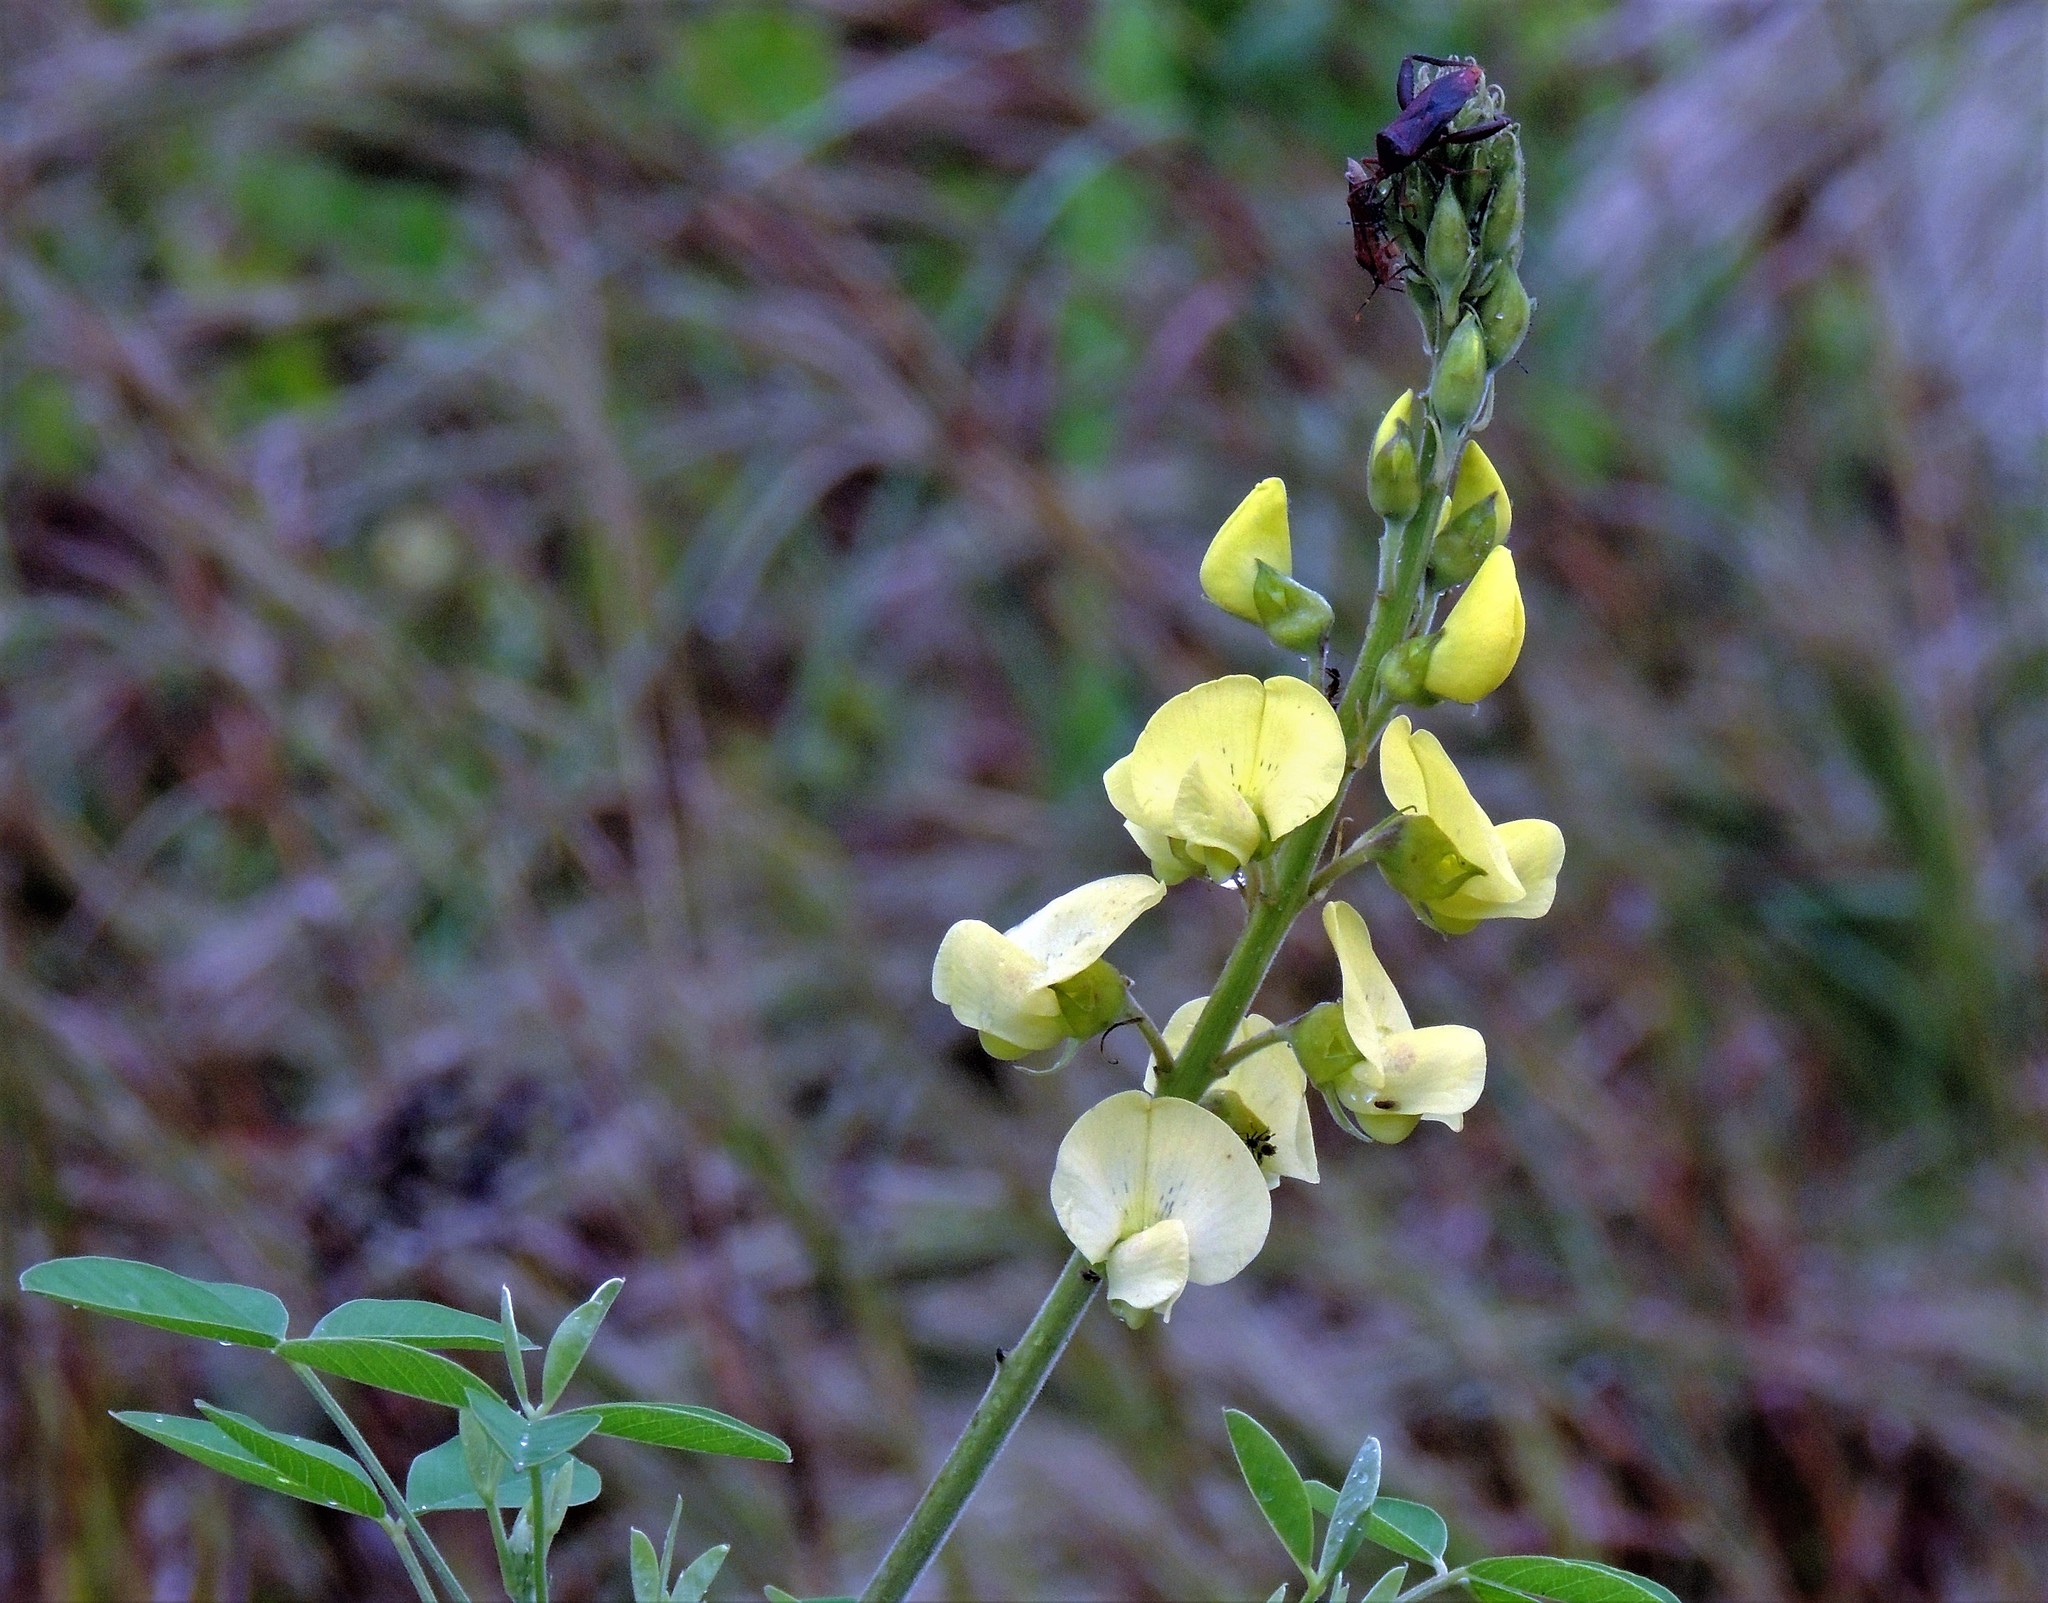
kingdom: Plantae
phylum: Tracheophyta
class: Magnoliopsida
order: Fabales
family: Fabaceae
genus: Crotalaria
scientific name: Crotalaria micans
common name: Caracas rattlebox
